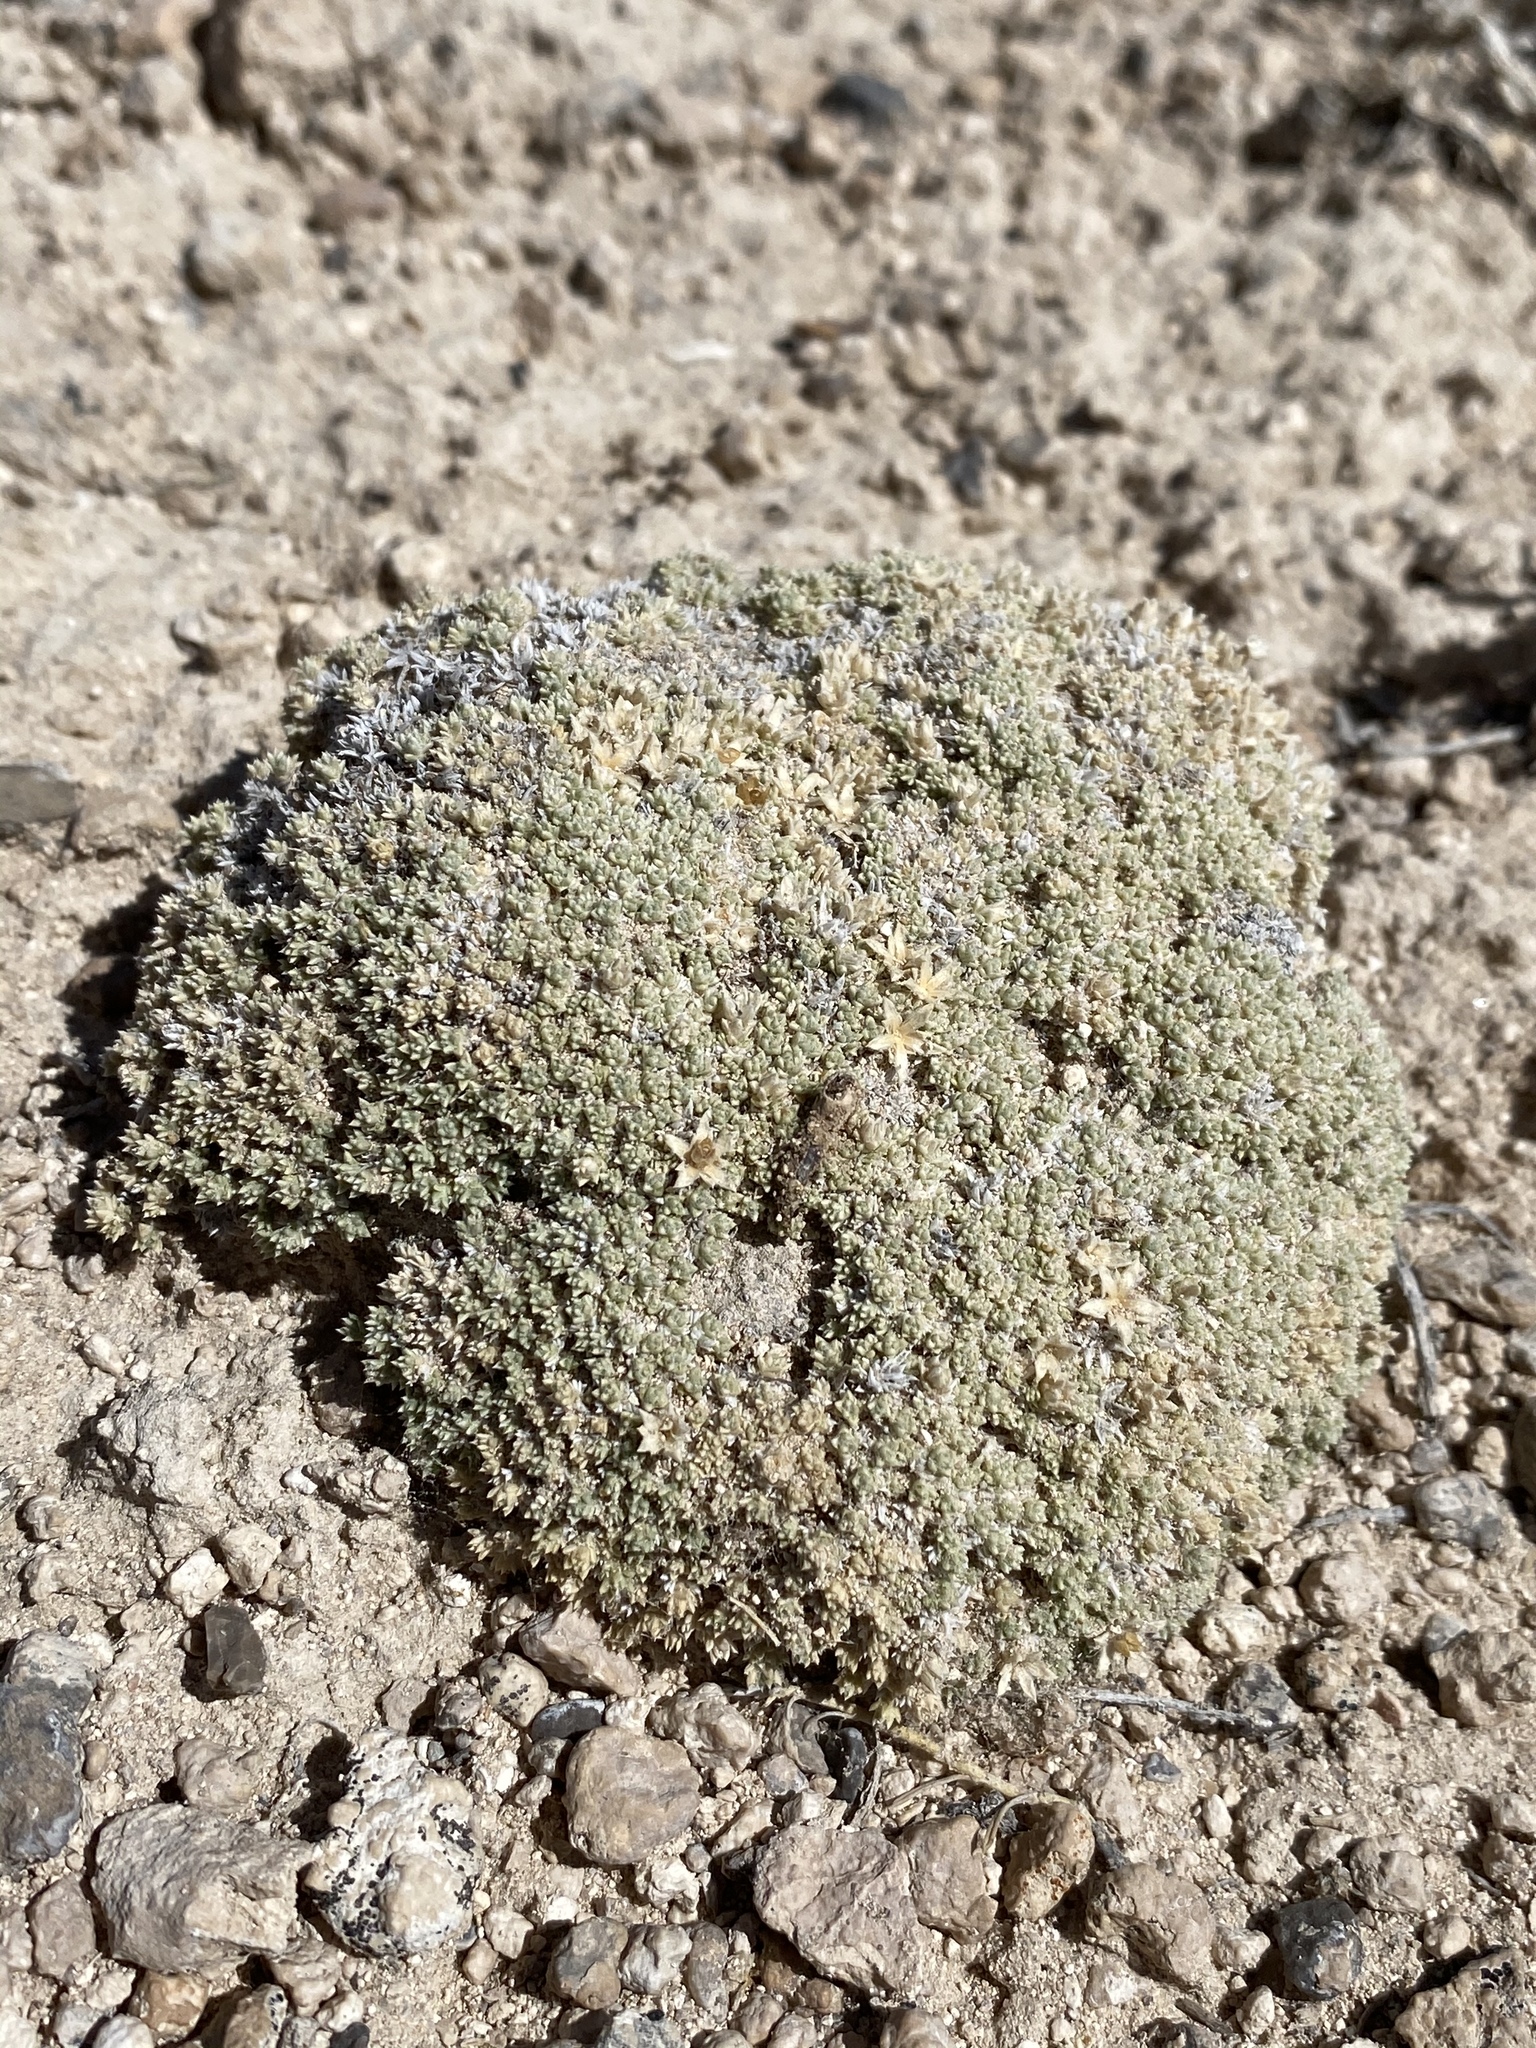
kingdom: Plantae
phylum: Tracheophyta
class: Magnoliopsida
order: Ericales
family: Polemoniaceae
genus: Phlox
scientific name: Phlox griseola
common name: Gray-leaf phlox
